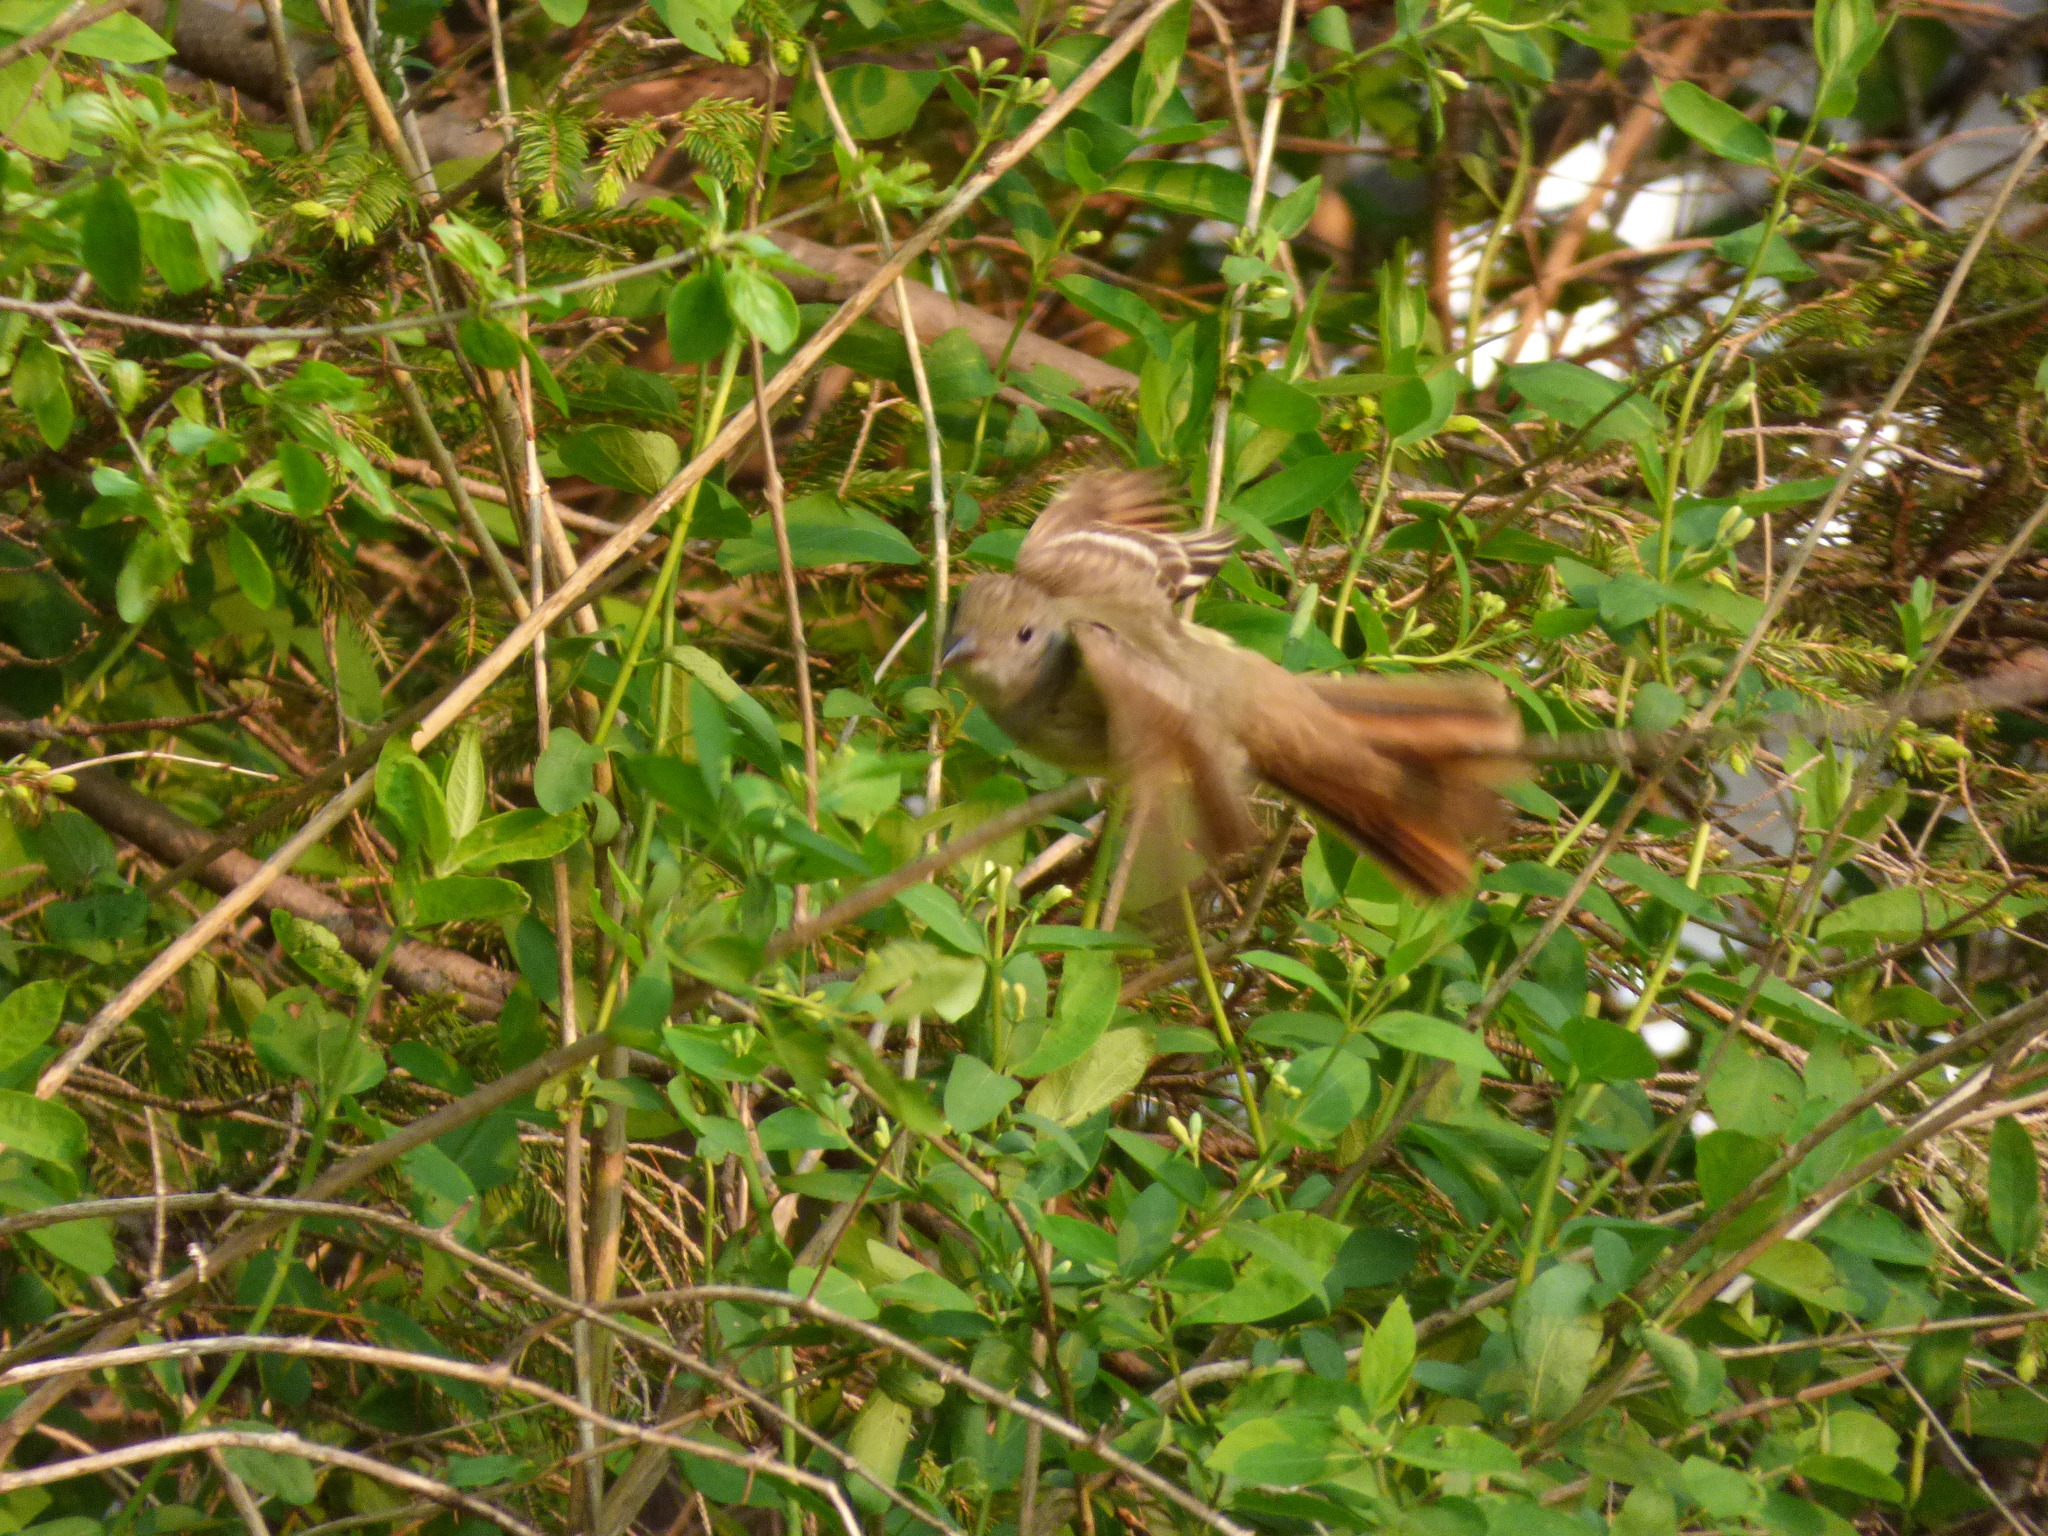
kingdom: Animalia
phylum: Chordata
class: Aves
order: Passeriformes
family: Tyrannidae
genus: Myiarchus
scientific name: Myiarchus crinitus
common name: Great crested flycatcher
